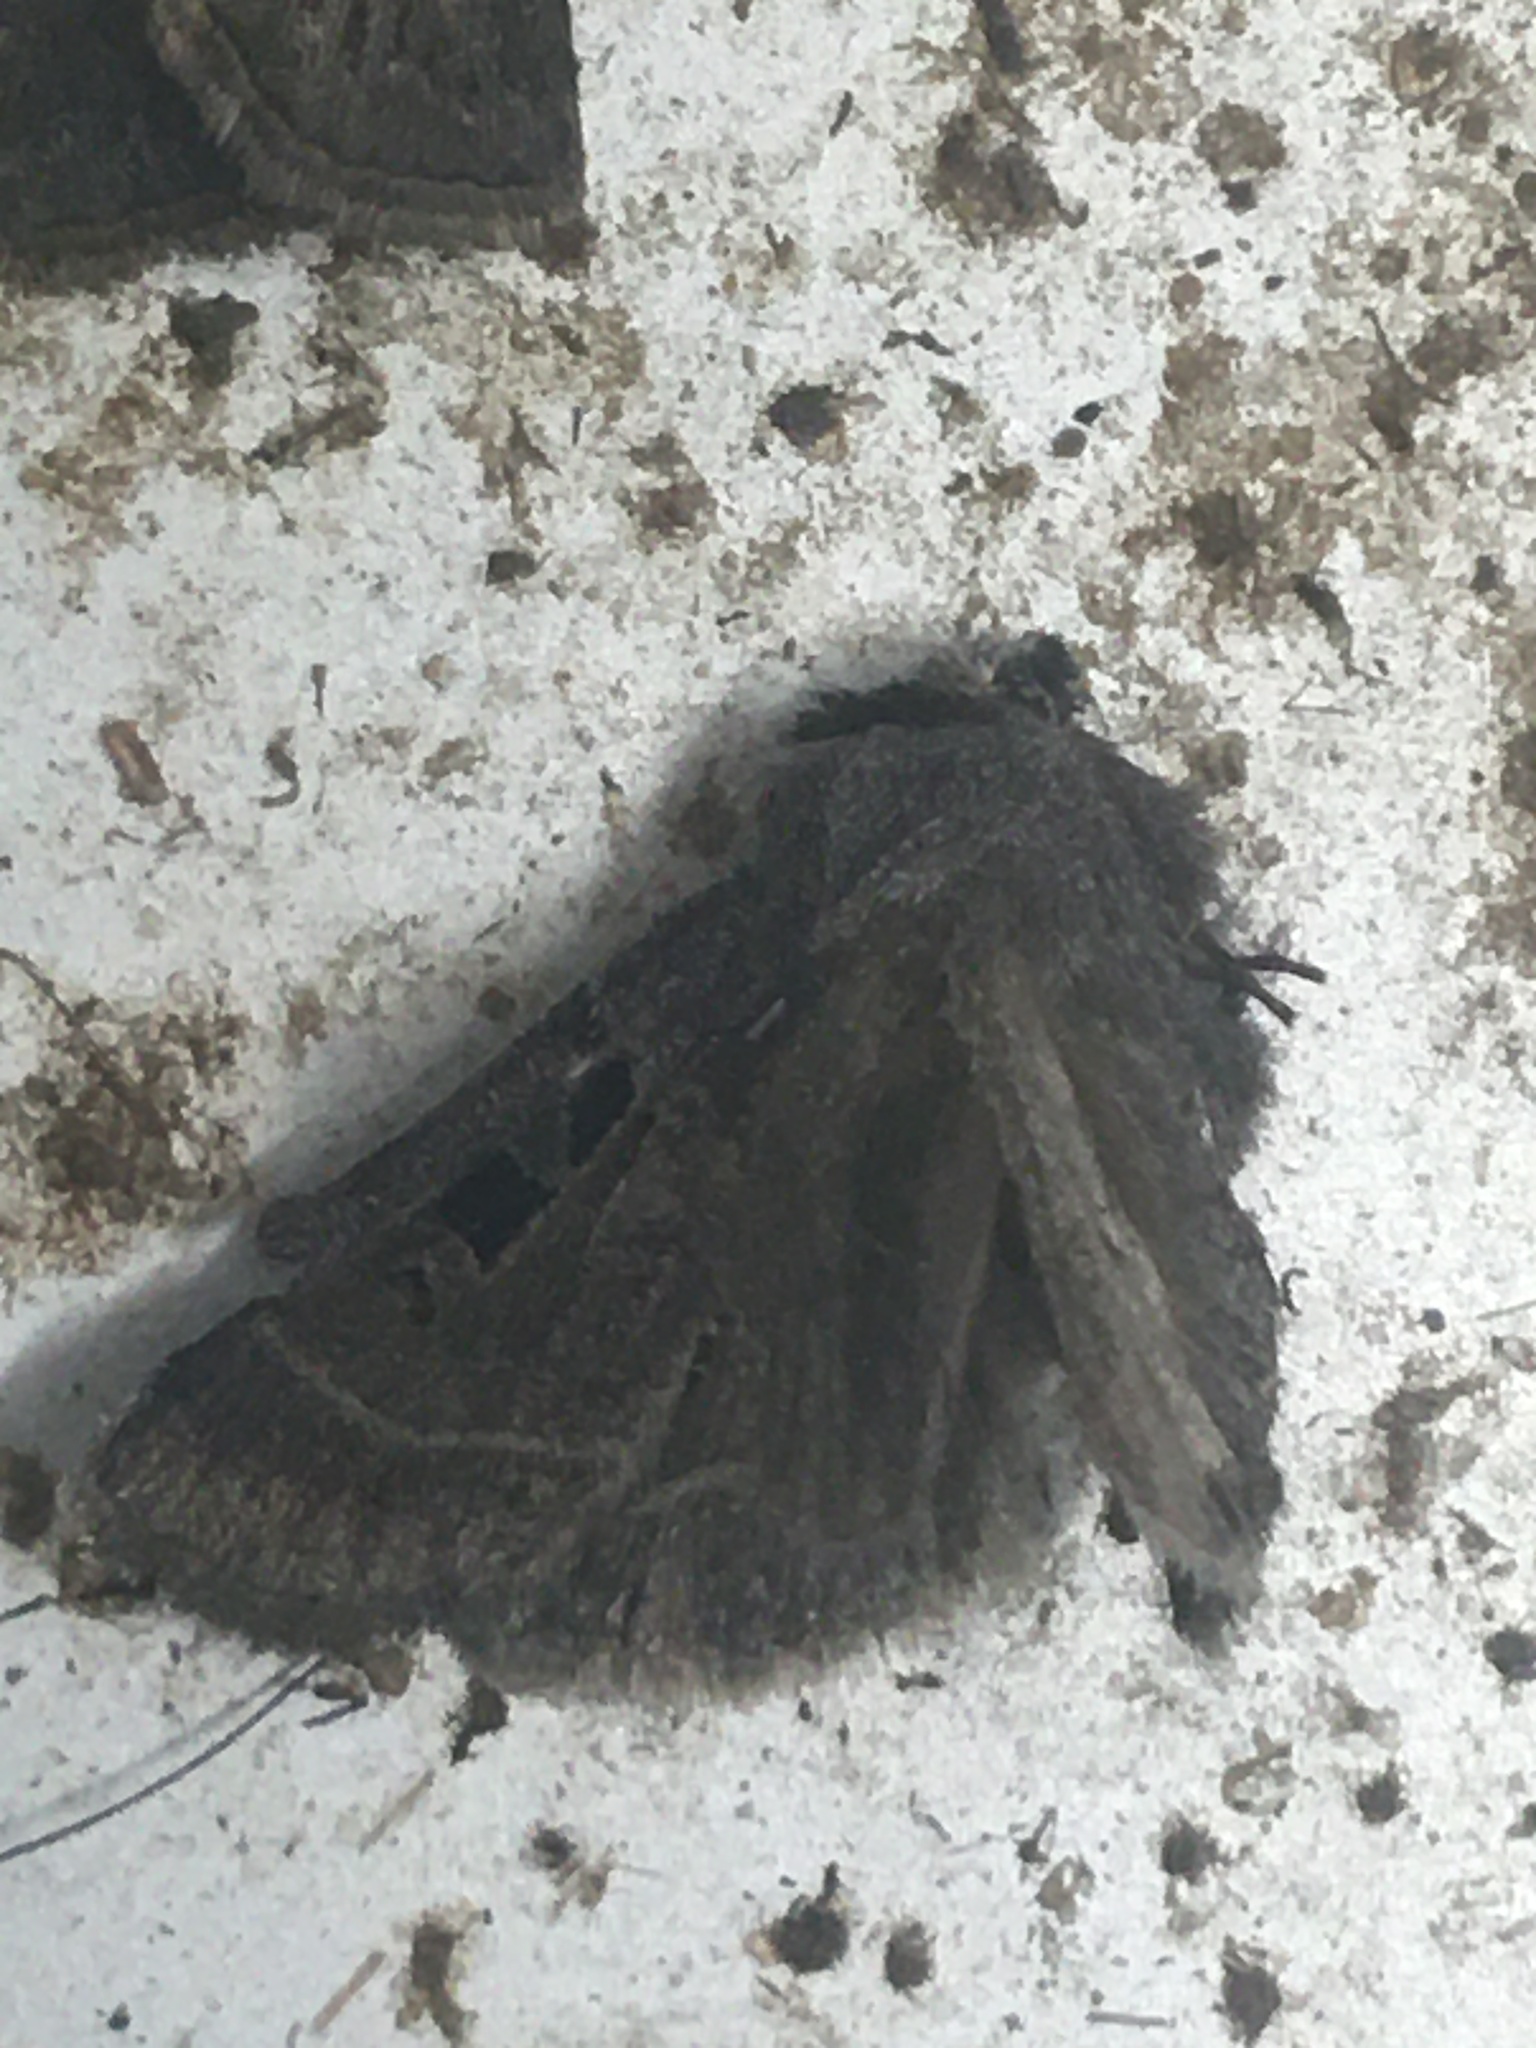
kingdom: Animalia
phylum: Arthropoda
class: Insecta
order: Lepidoptera
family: Noctuidae
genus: Agnorisma
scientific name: Agnorisma bollii
